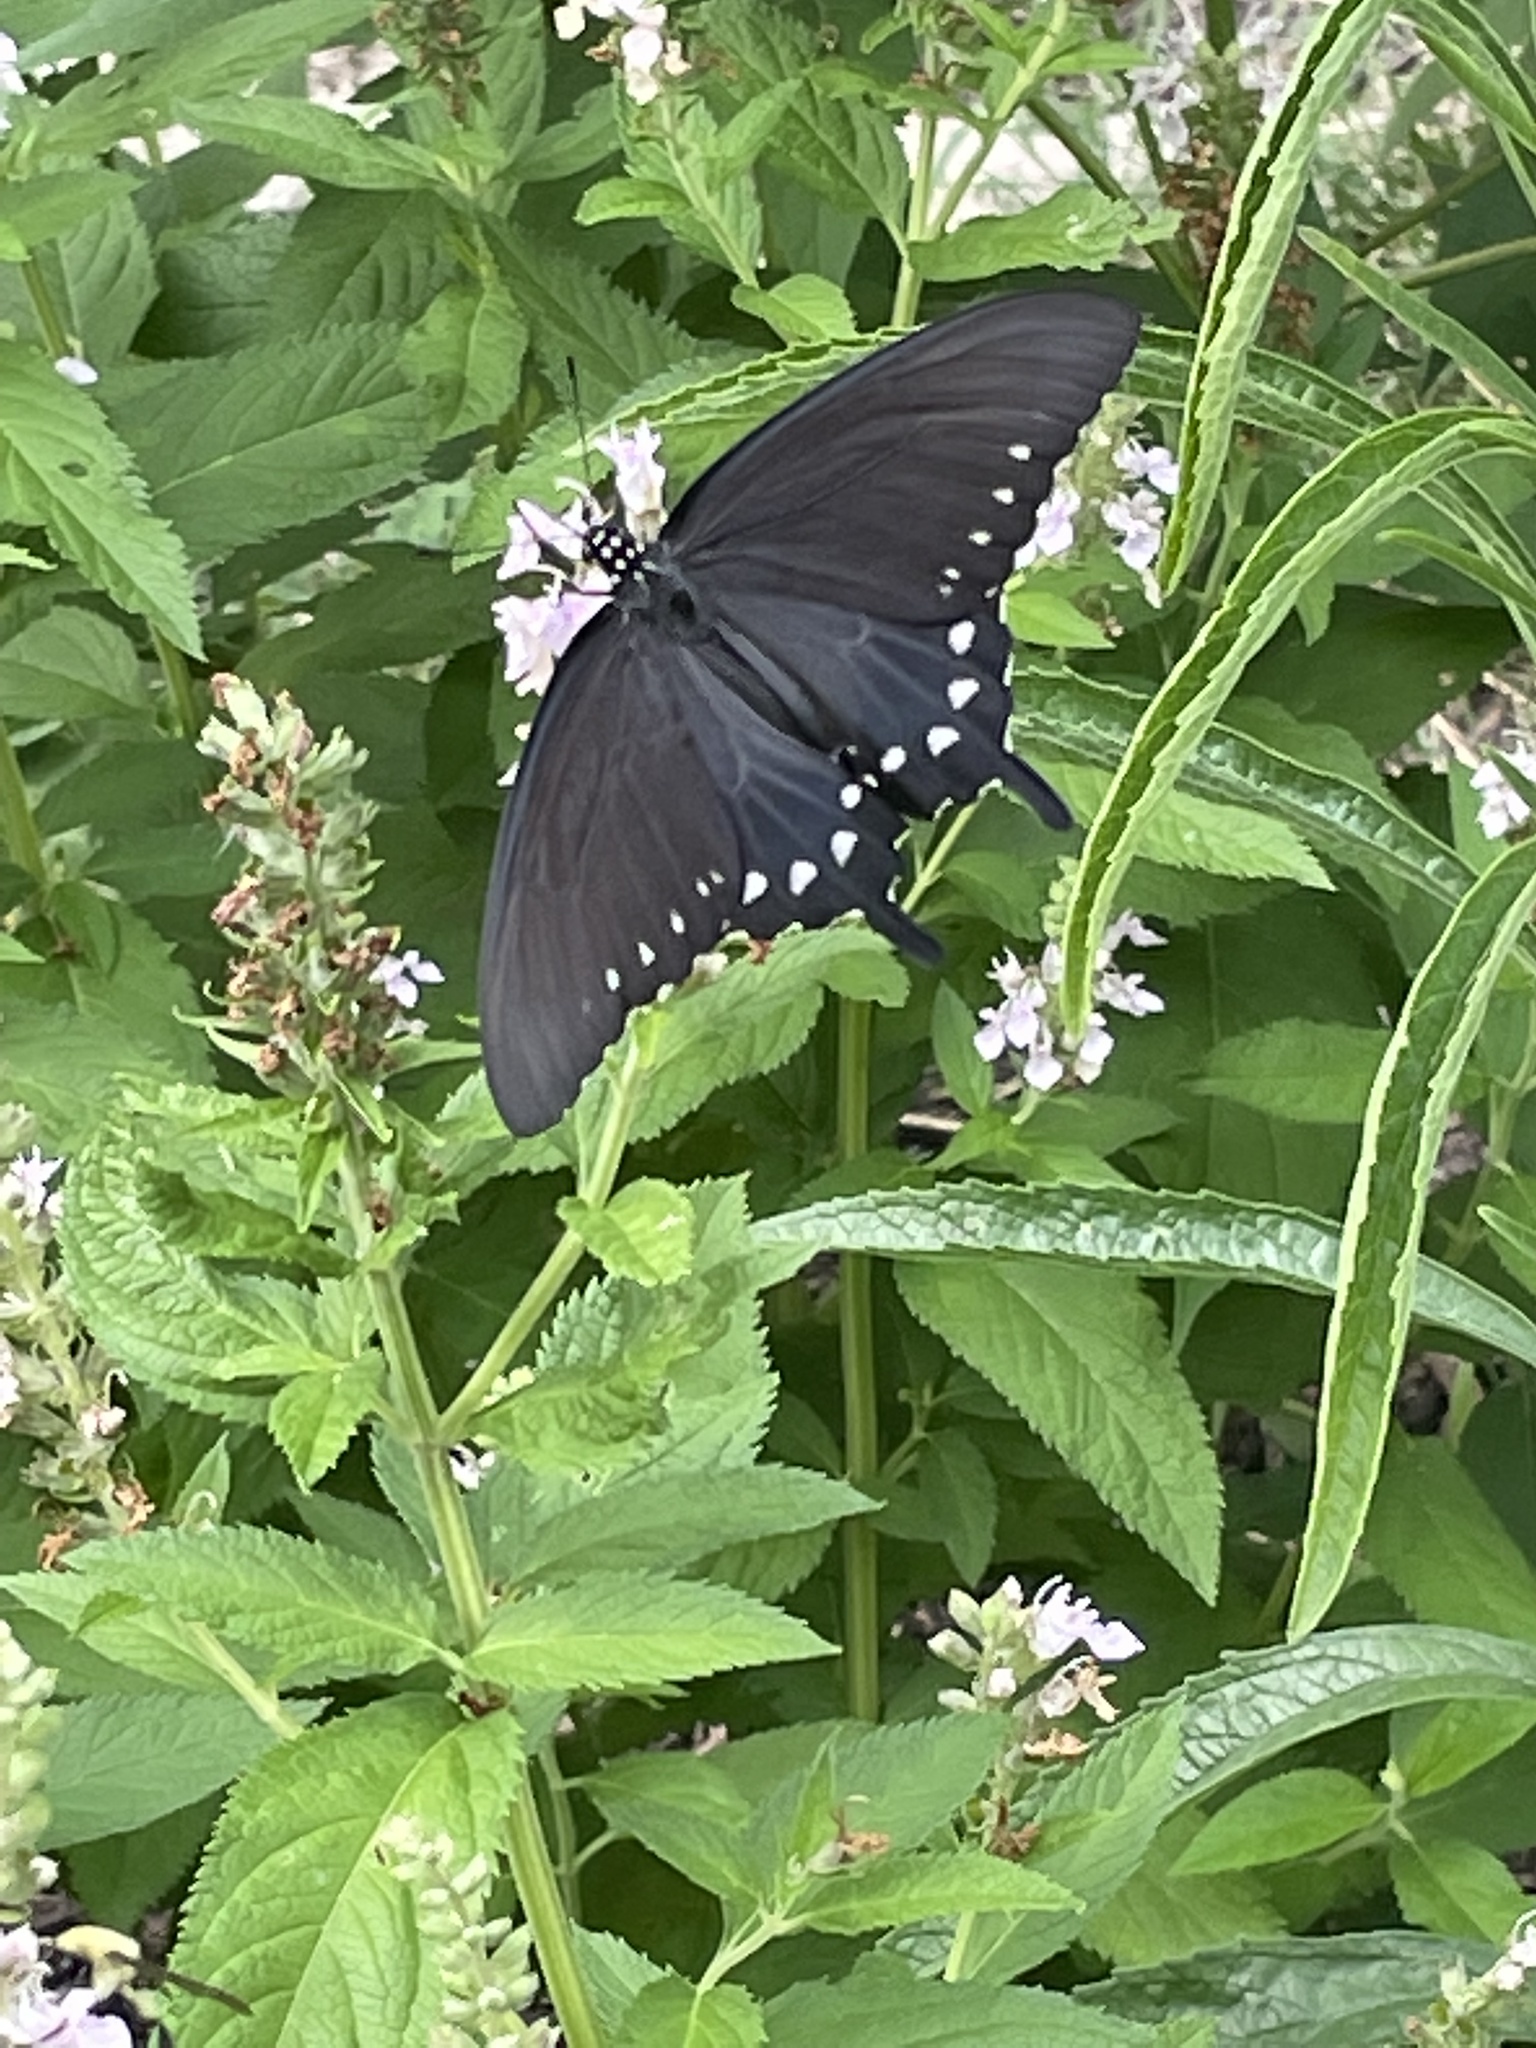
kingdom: Animalia
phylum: Arthropoda
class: Insecta
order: Lepidoptera
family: Papilionidae
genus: Battus
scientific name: Battus philenor
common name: Pipevine swallowtail
